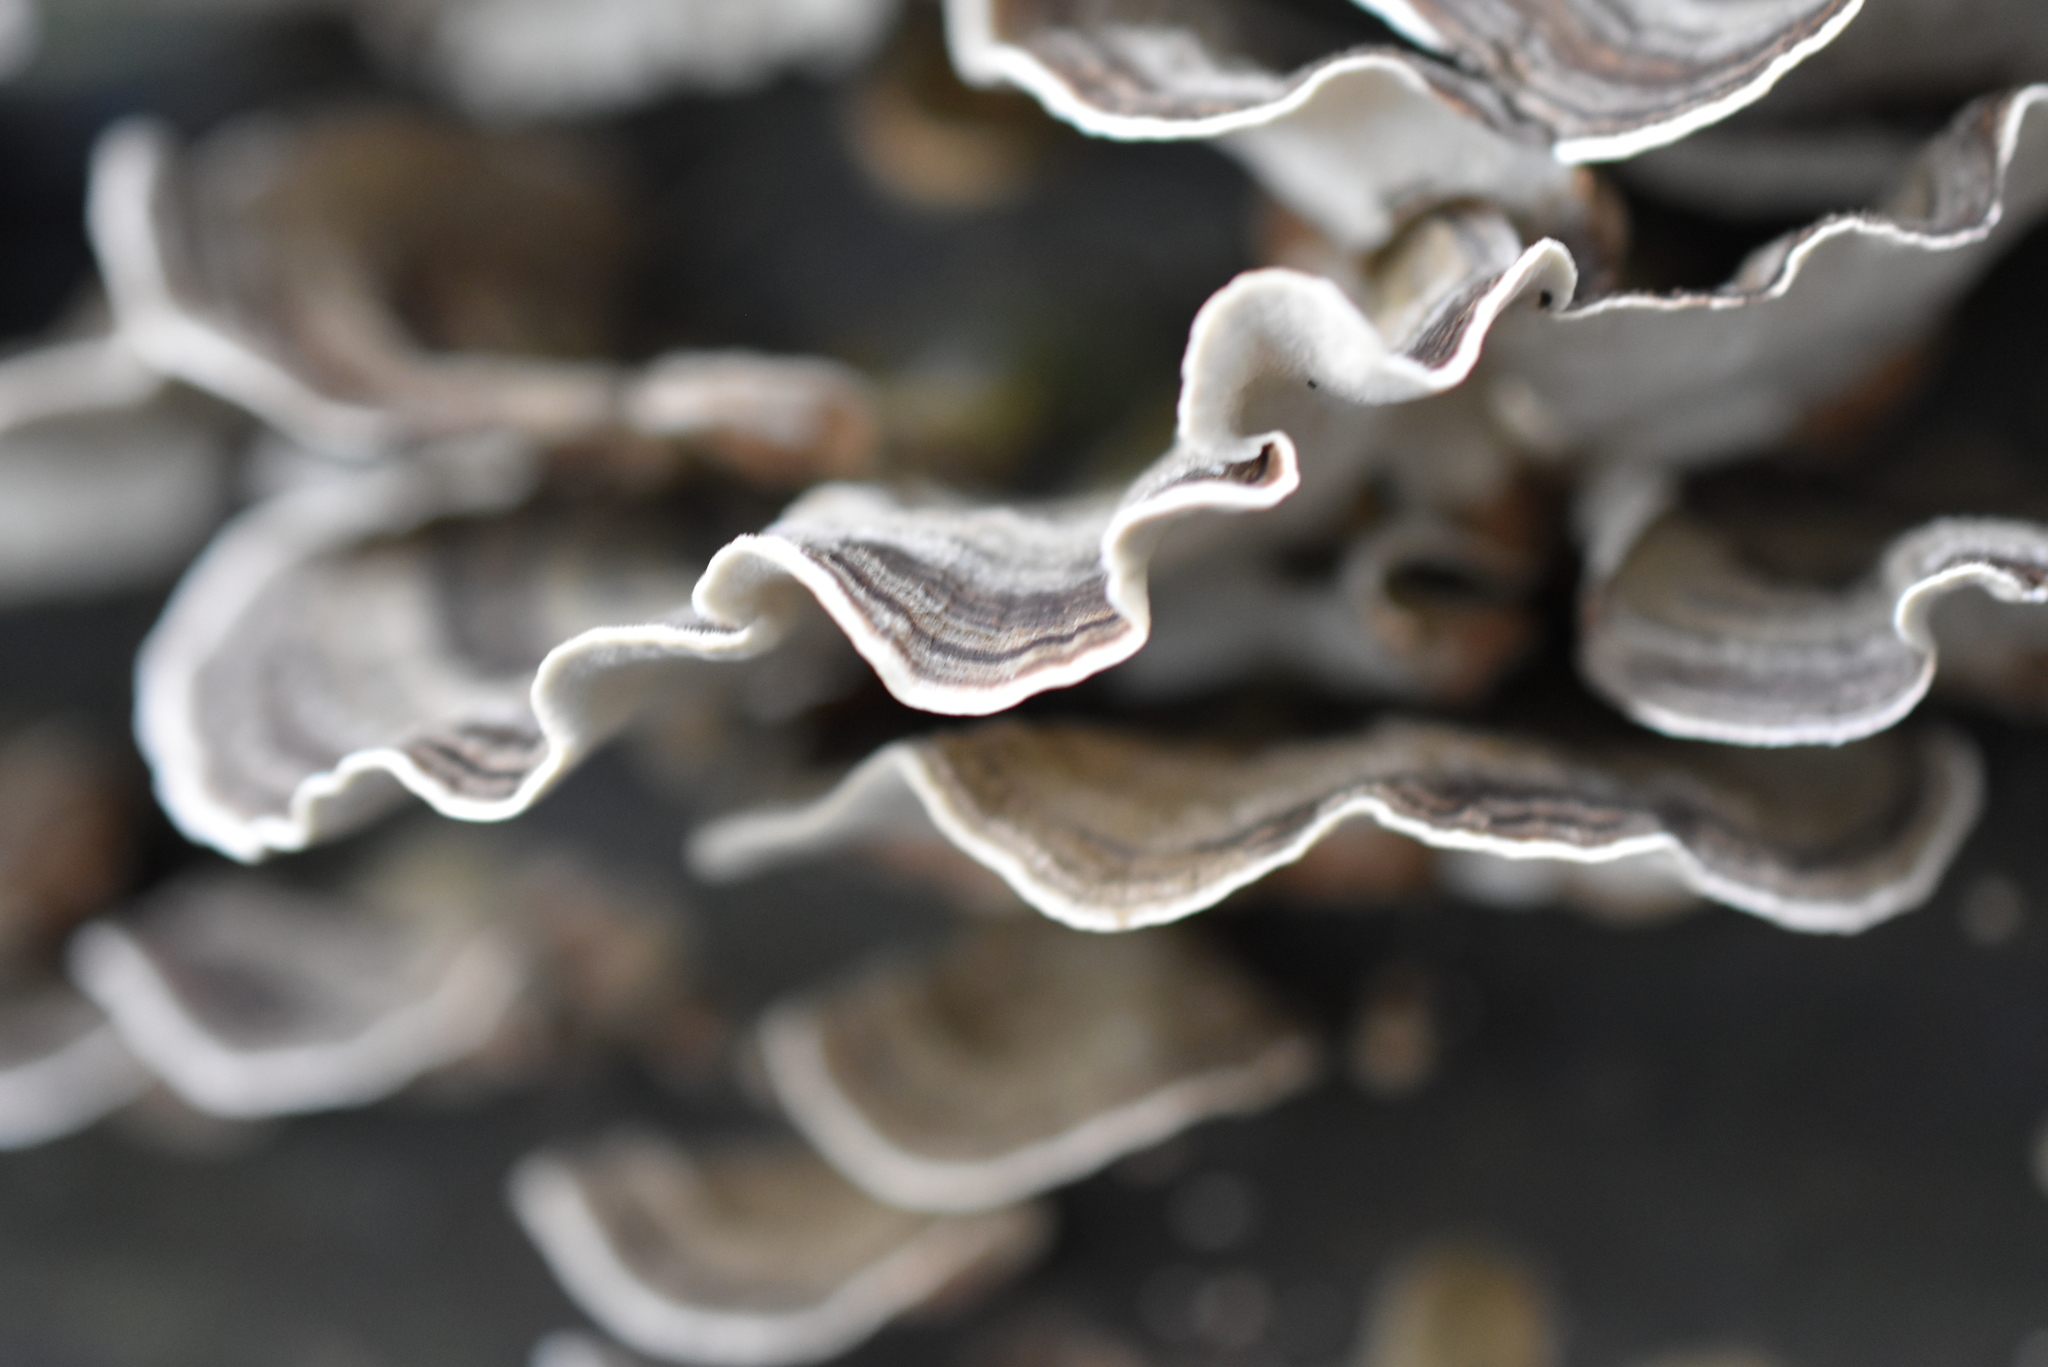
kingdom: Fungi
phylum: Basidiomycota
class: Agaricomycetes
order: Polyporales
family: Polyporaceae
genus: Trametes
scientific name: Trametes versicolor
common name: Turkeytail
